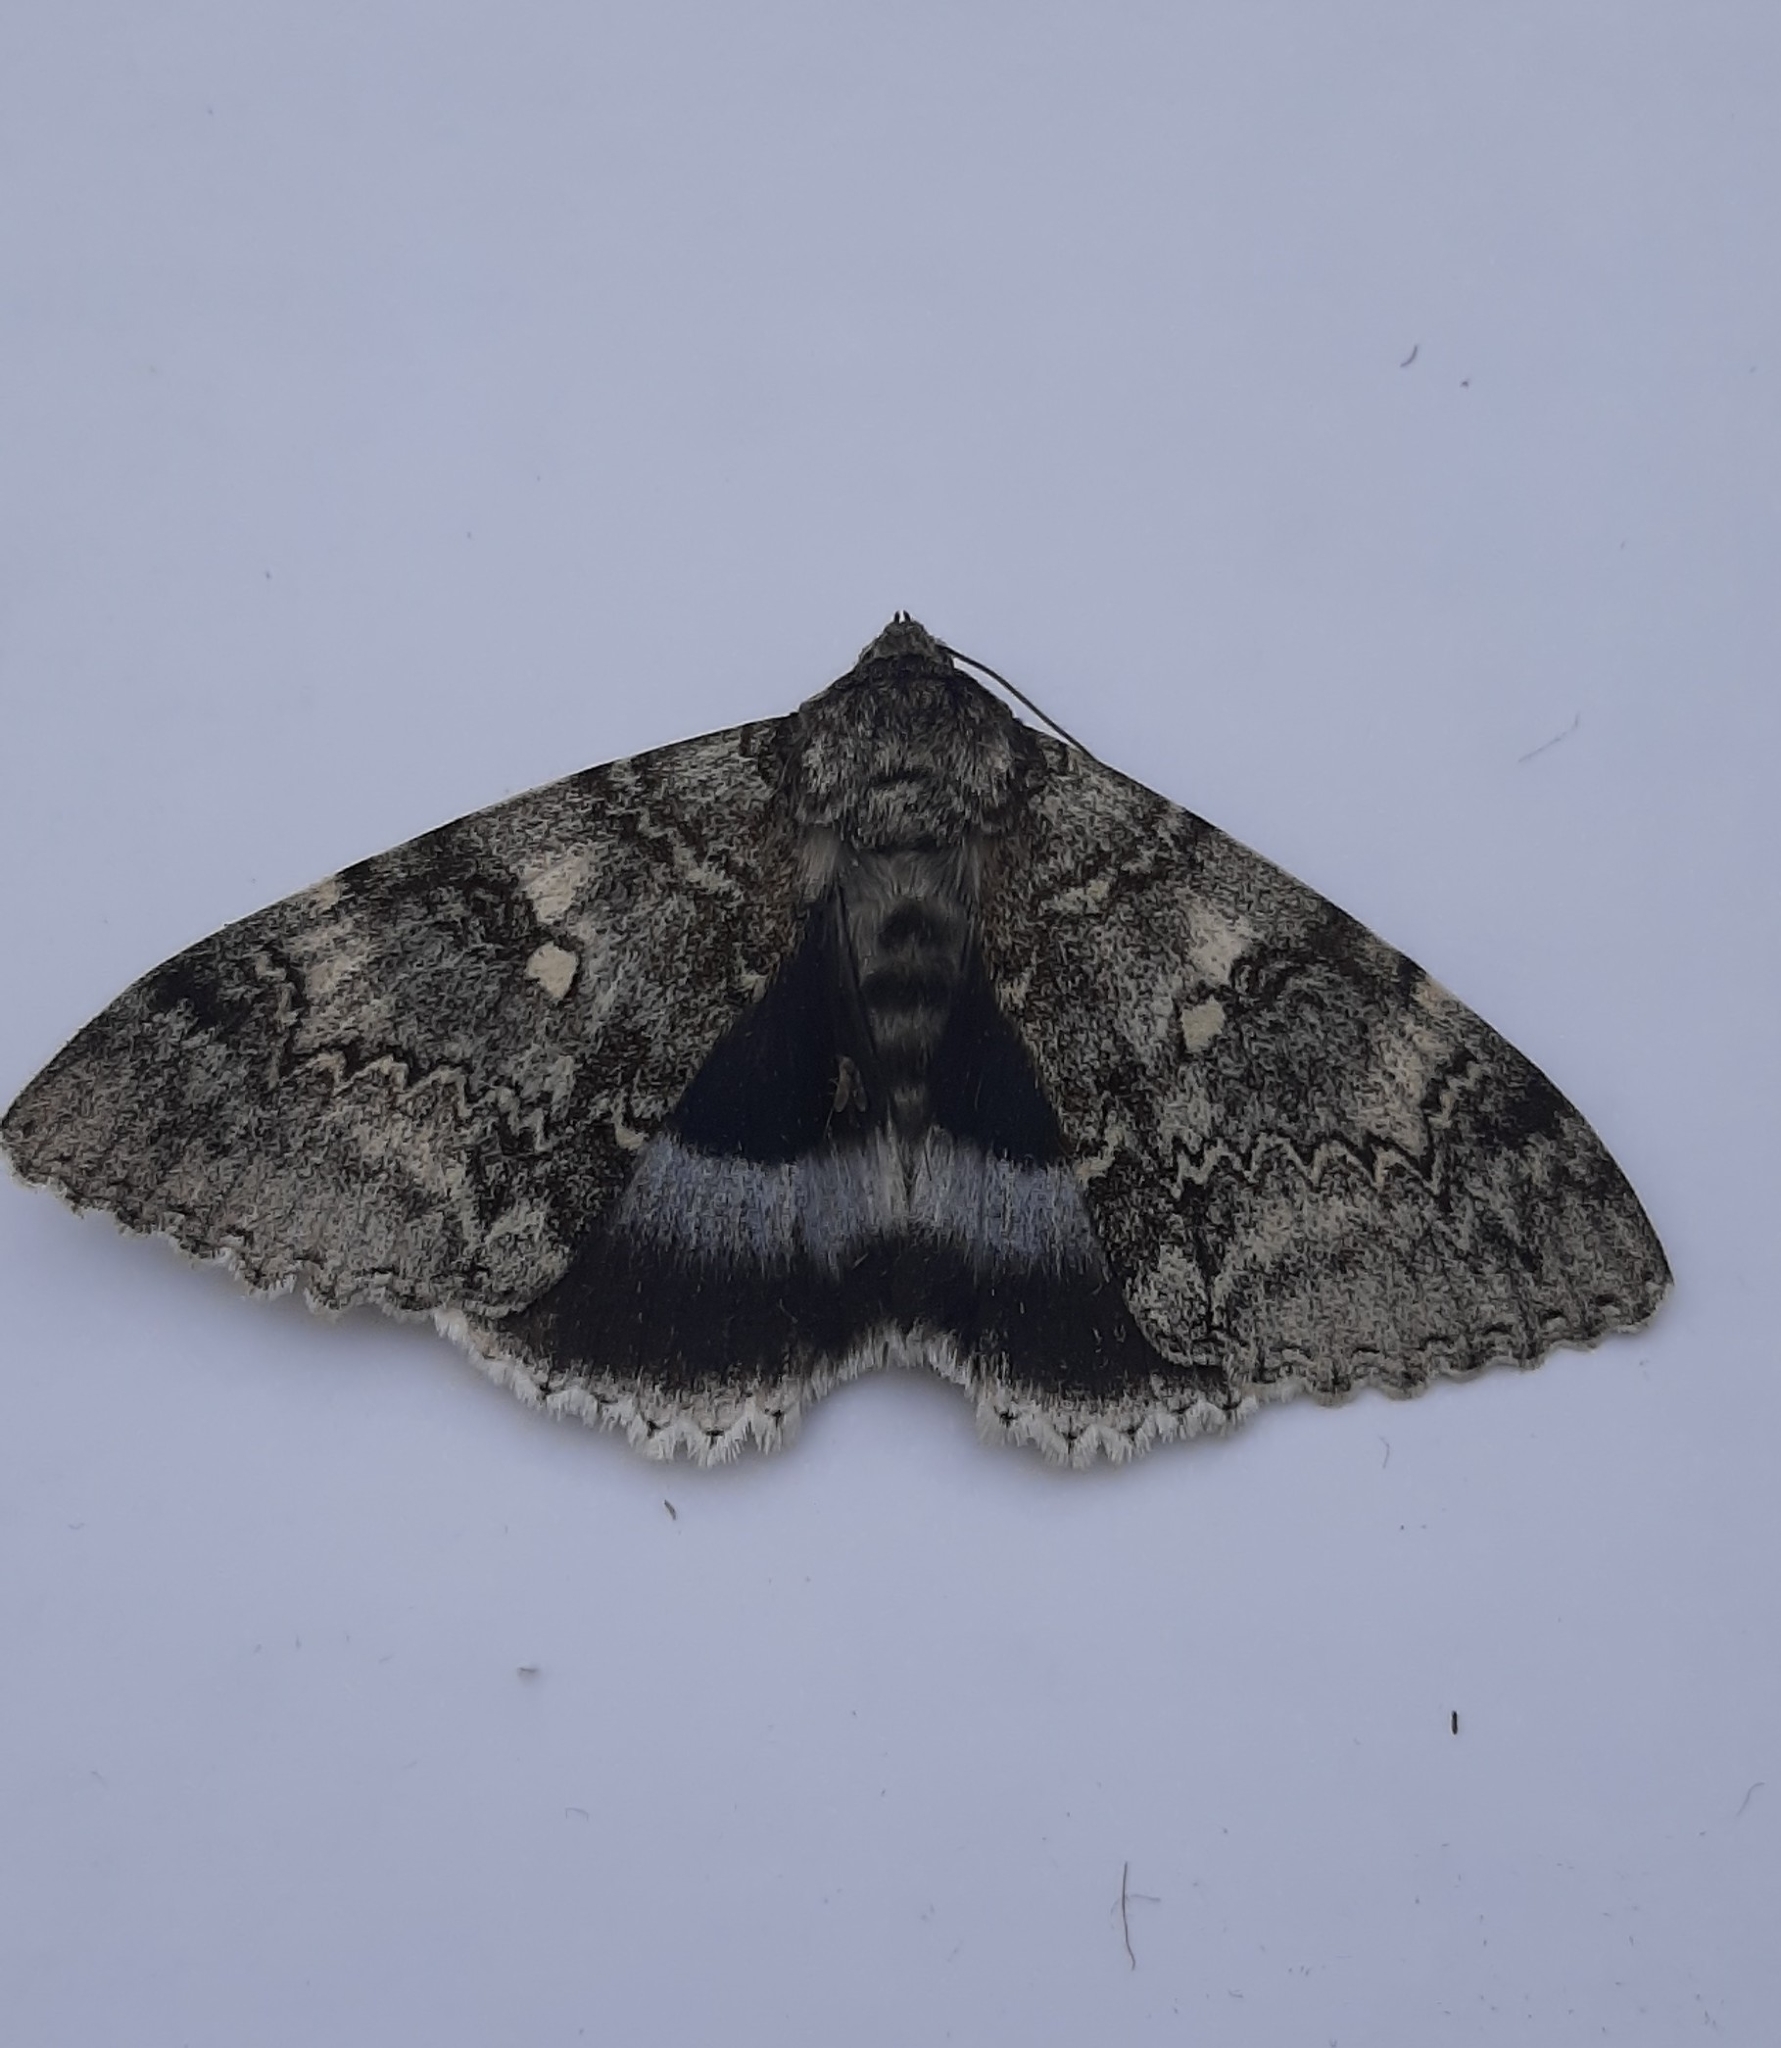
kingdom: Animalia
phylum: Arthropoda
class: Insecta
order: Lepidoptera
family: Erebidae
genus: Catocala
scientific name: Catocala fraxini
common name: Clifden nonpareil
